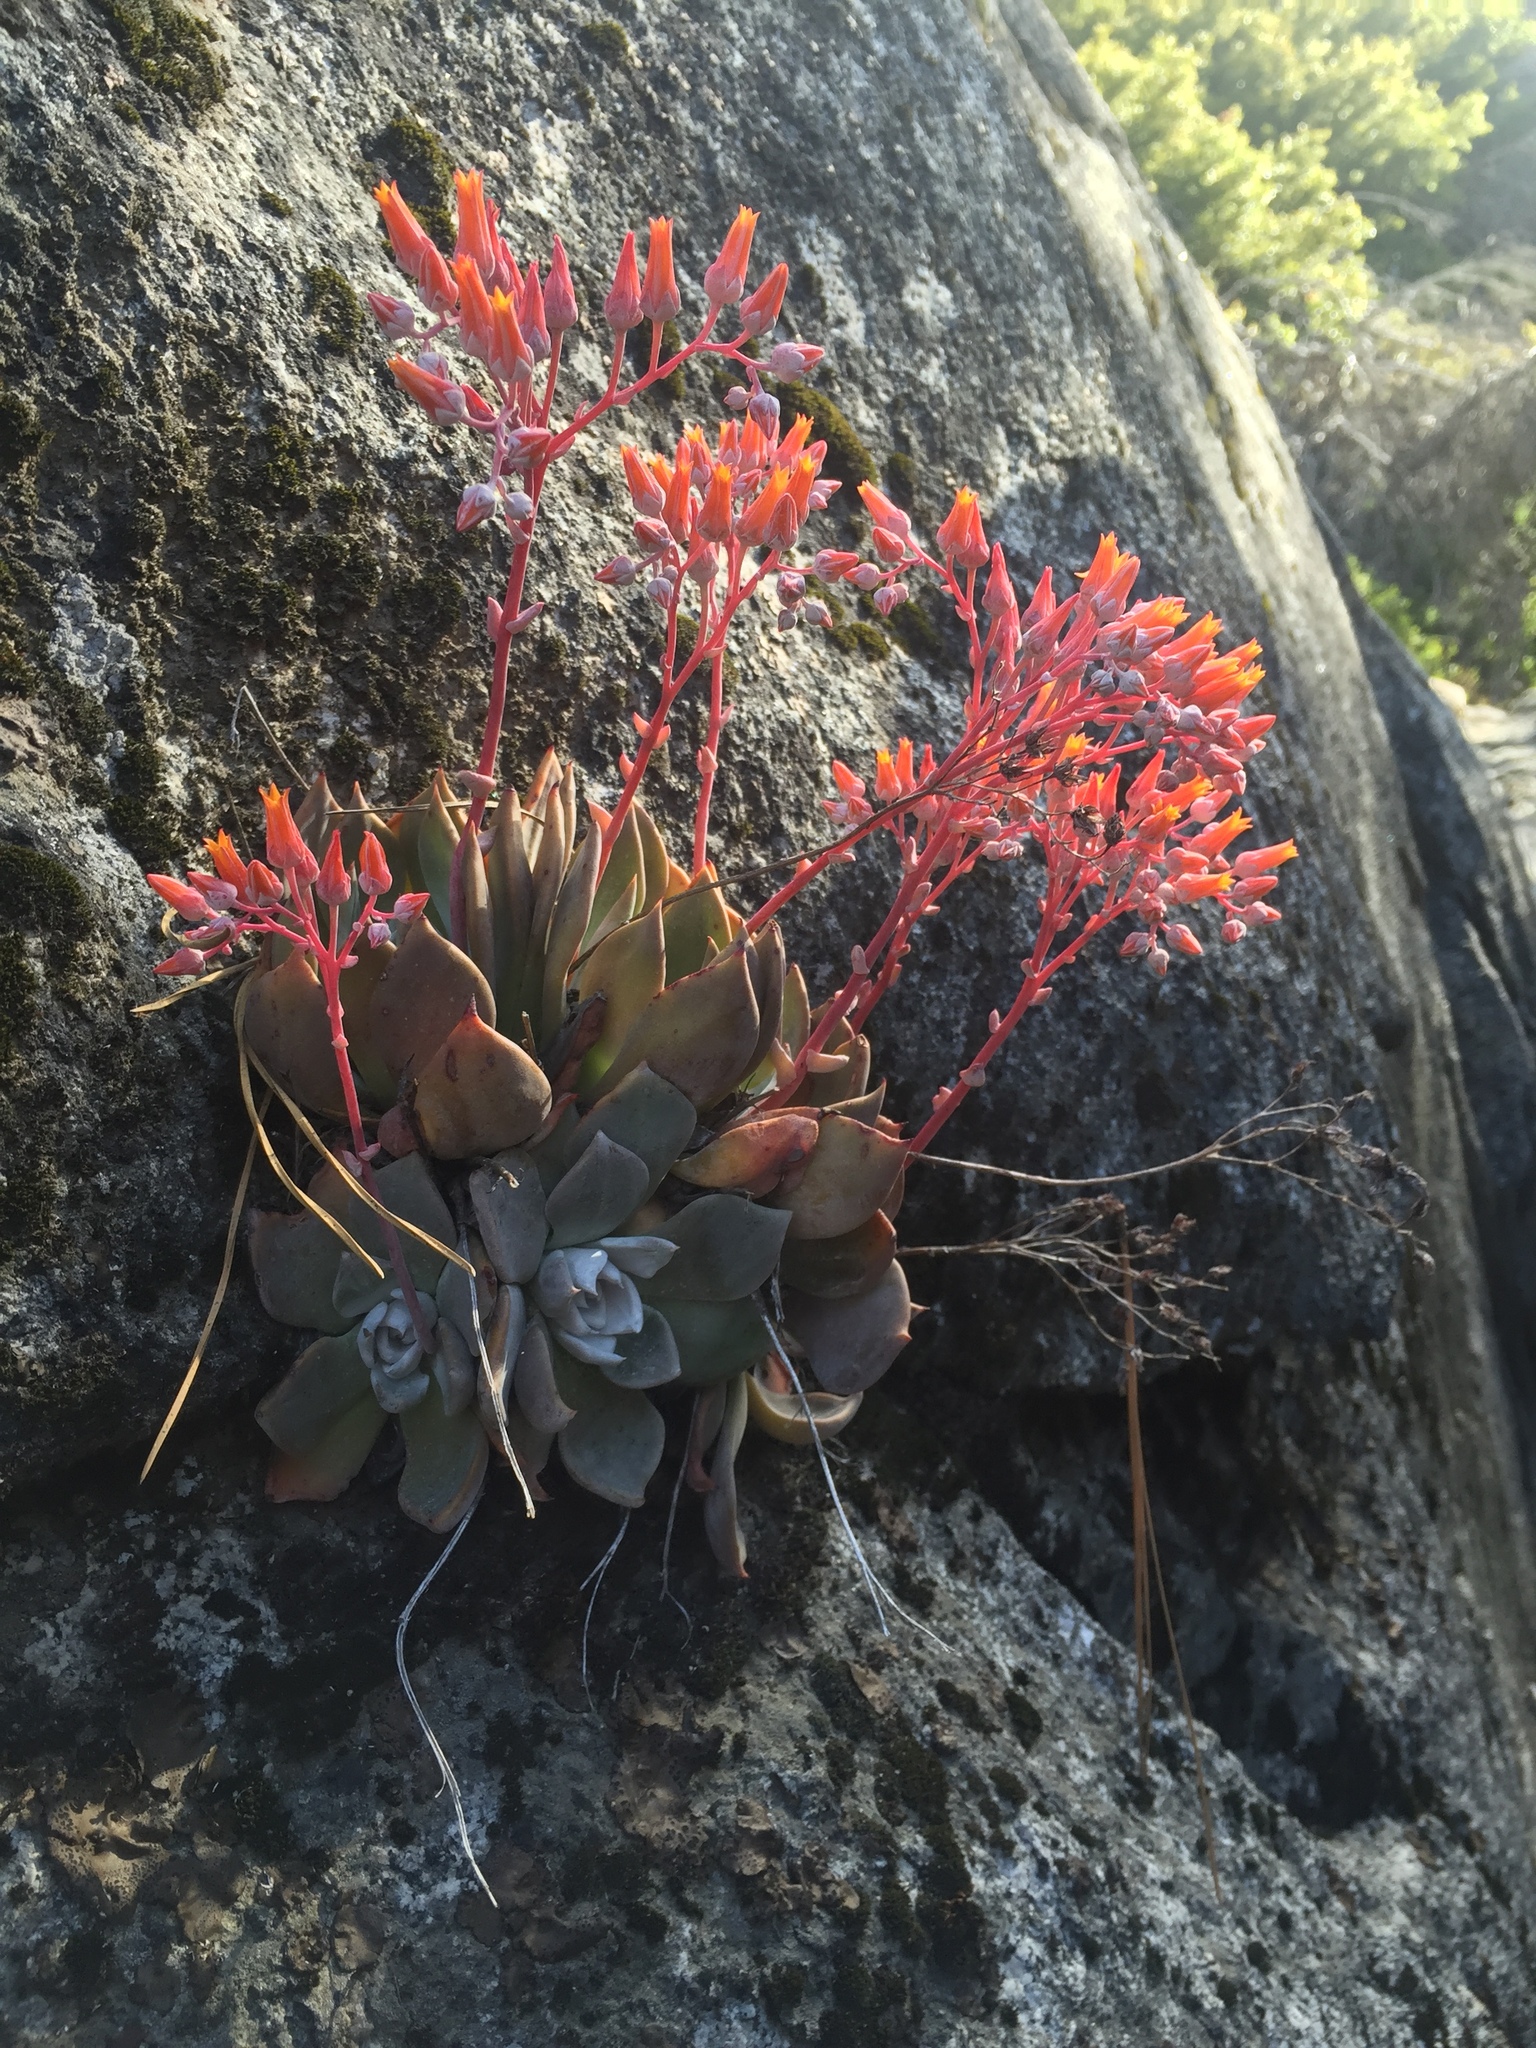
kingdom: Plantae
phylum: Tracheophyta
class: Magnoliopsida
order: Saxifragales
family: Crassulaceae
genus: Dudleya
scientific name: Dudleya cymosa
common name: Canyon dudleya
